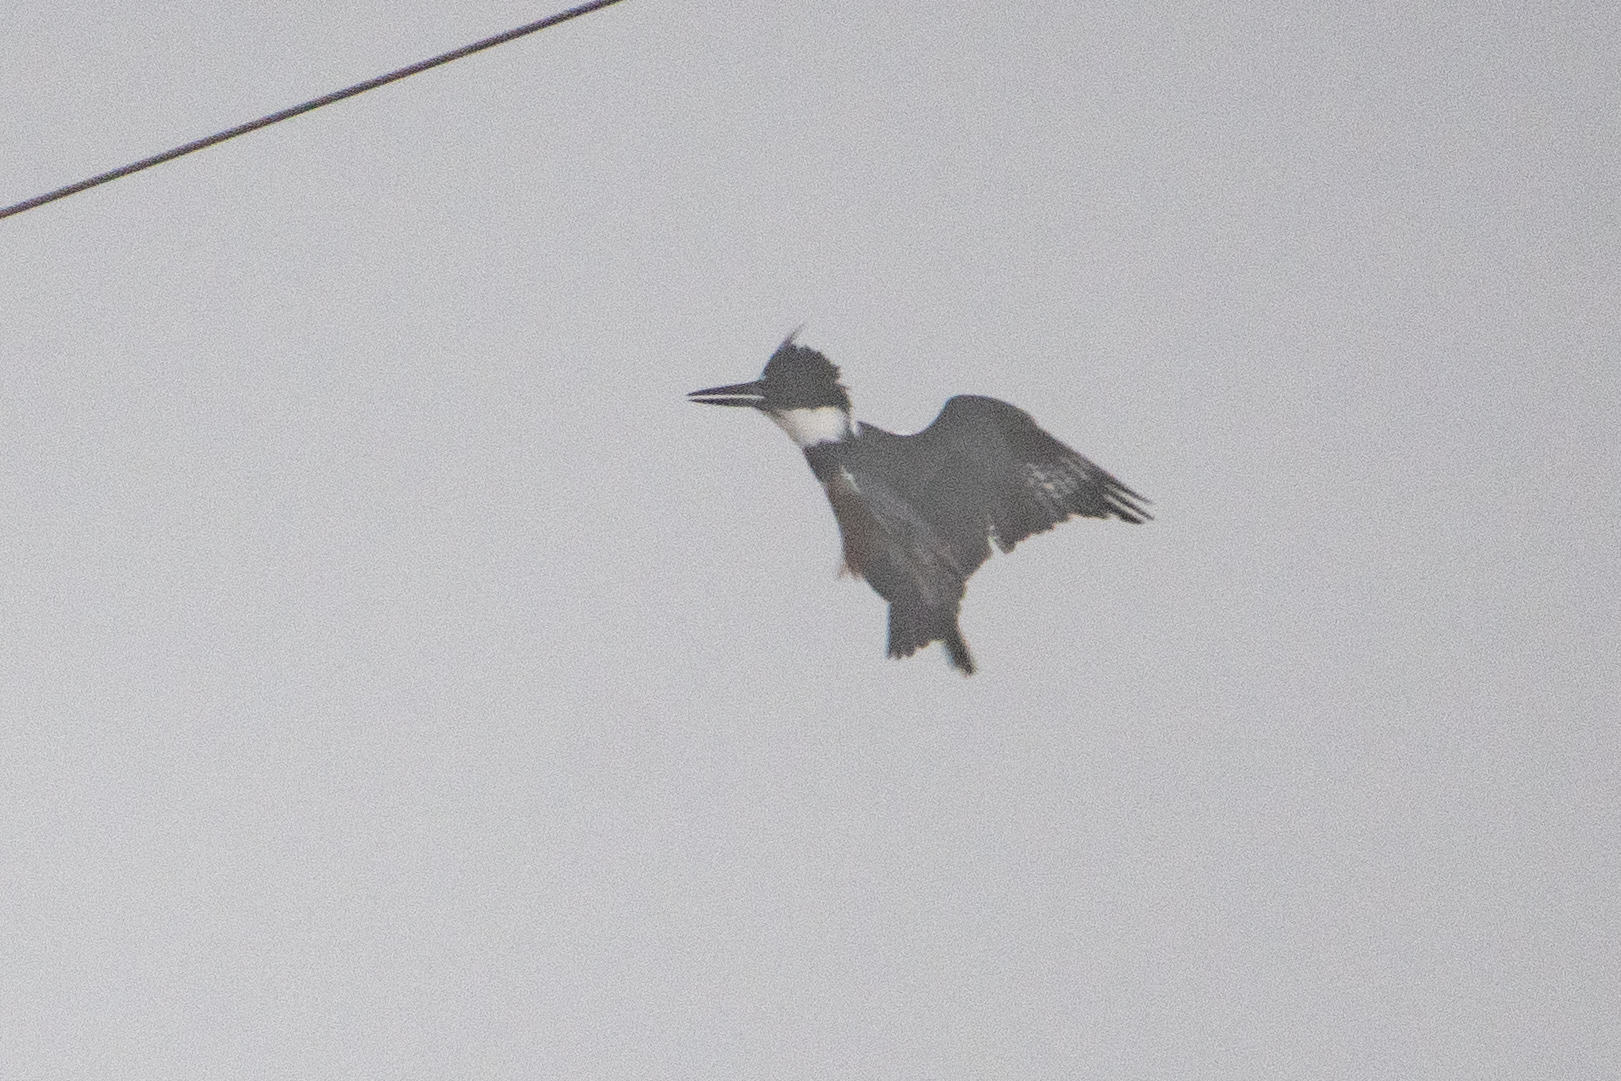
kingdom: Animalia
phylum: Chordata
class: Aves
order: Coraciiformes
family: Alcedinidae
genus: Megaceryle
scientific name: Megaceryle alcyon
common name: Belted kingfisher
